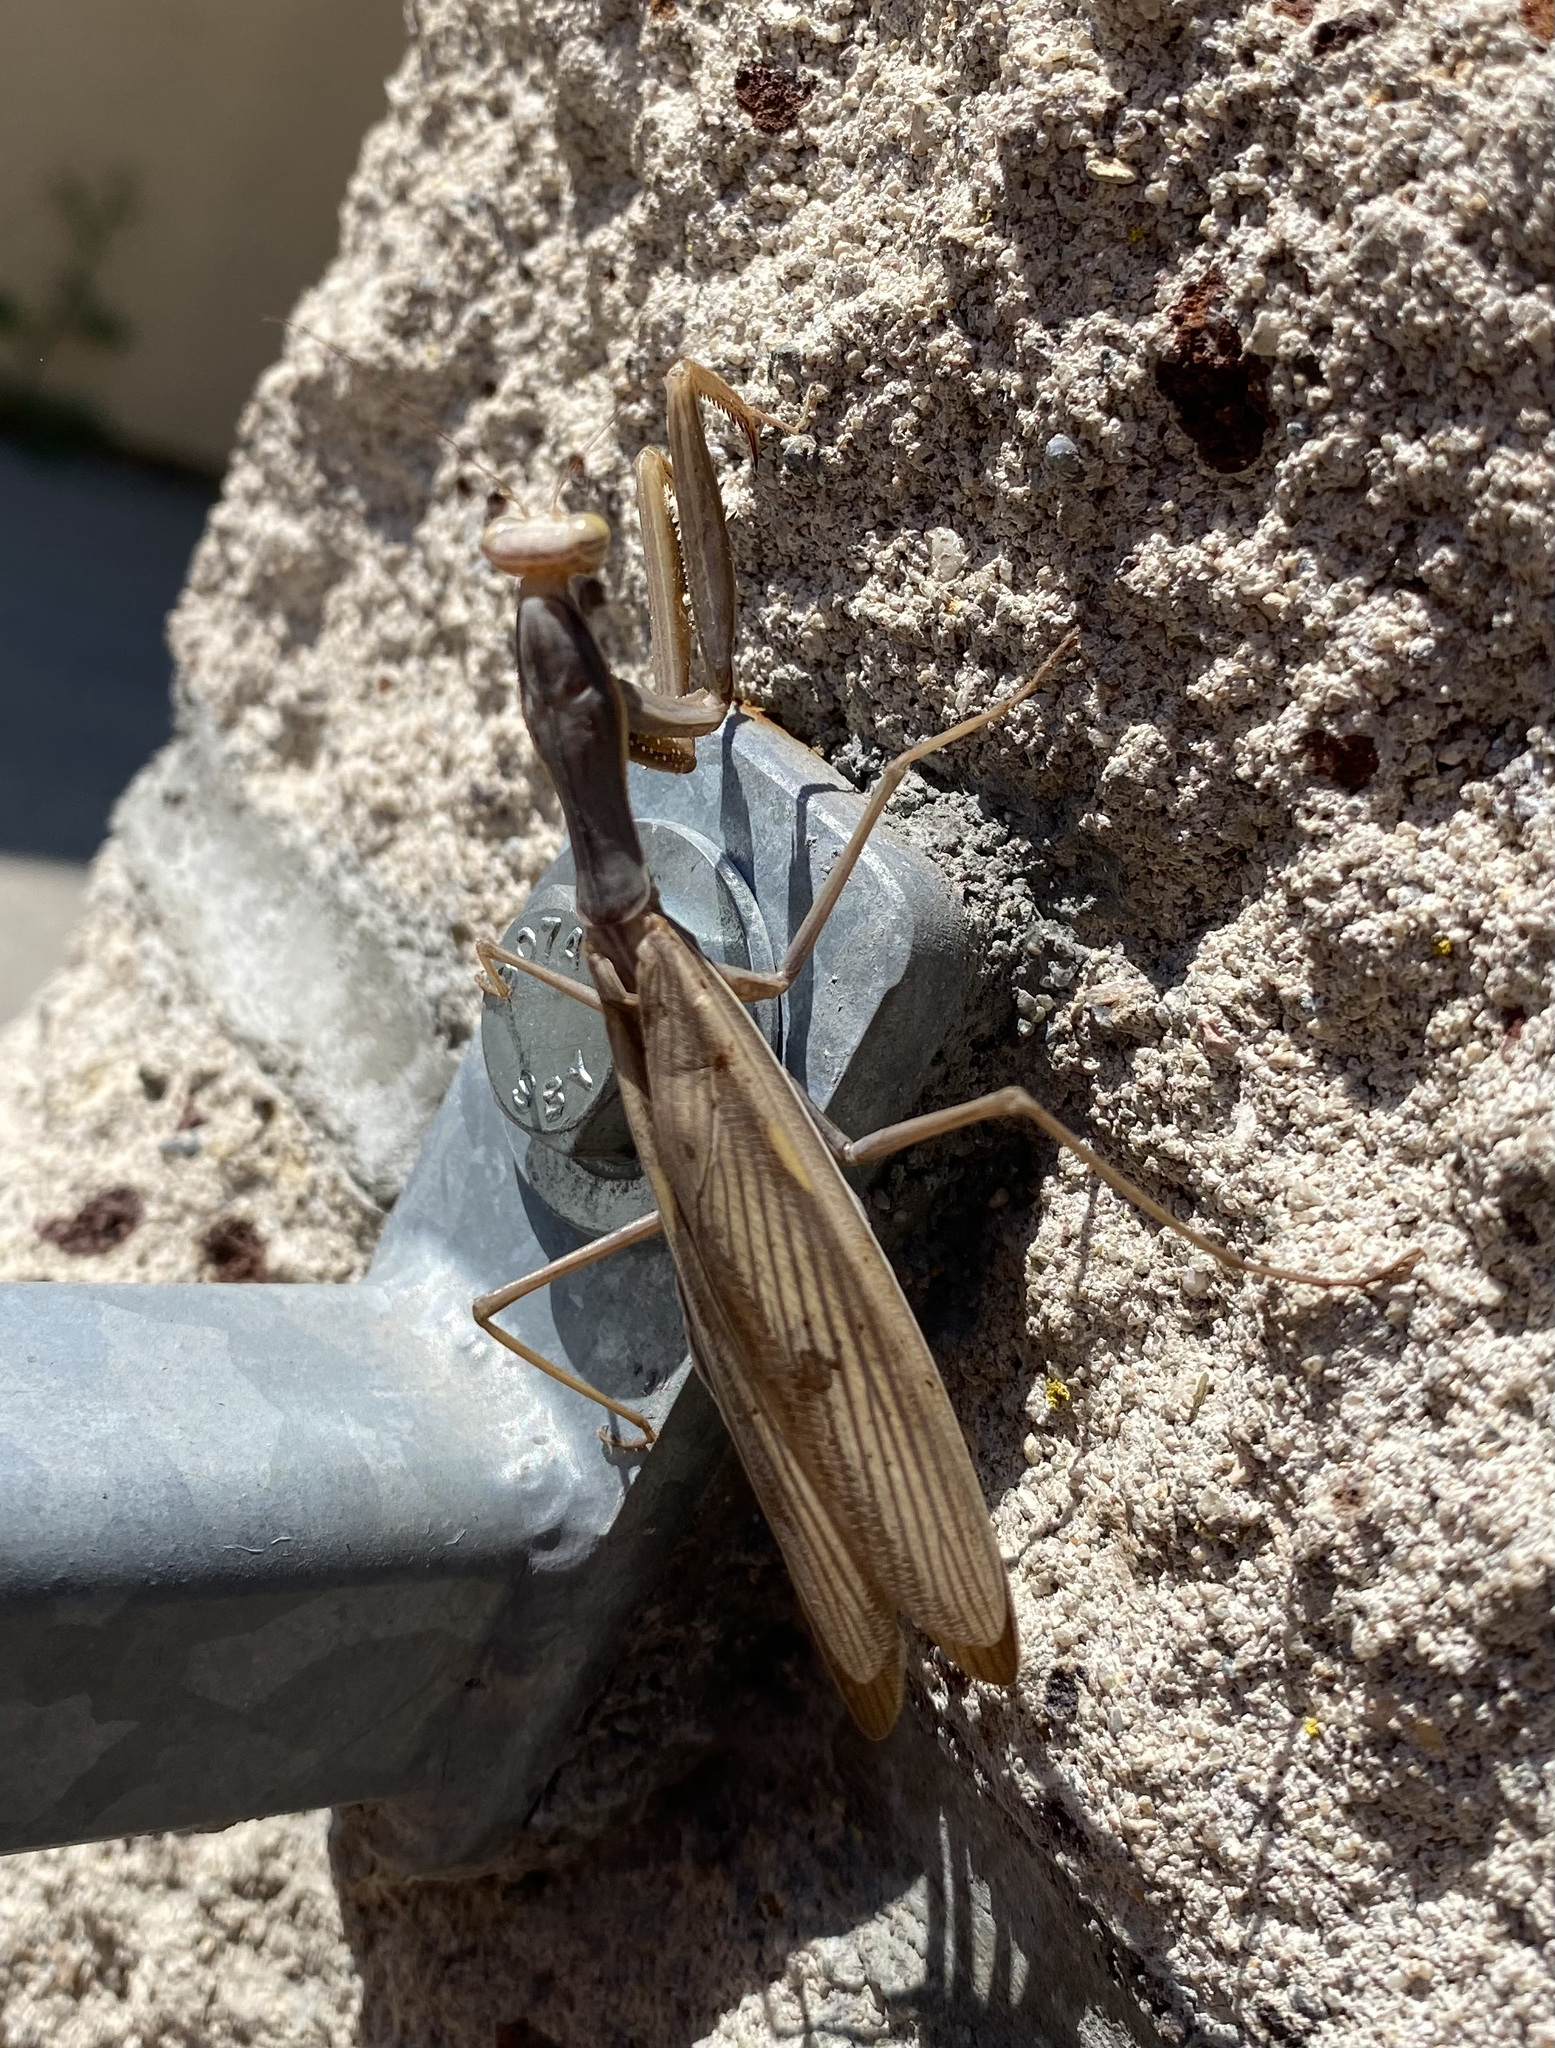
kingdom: Animalia
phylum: Arthropoda
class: Insecta
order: Mantodea
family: Mantidae
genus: Mantis
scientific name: Mantis religiosa
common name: Praying mantis
